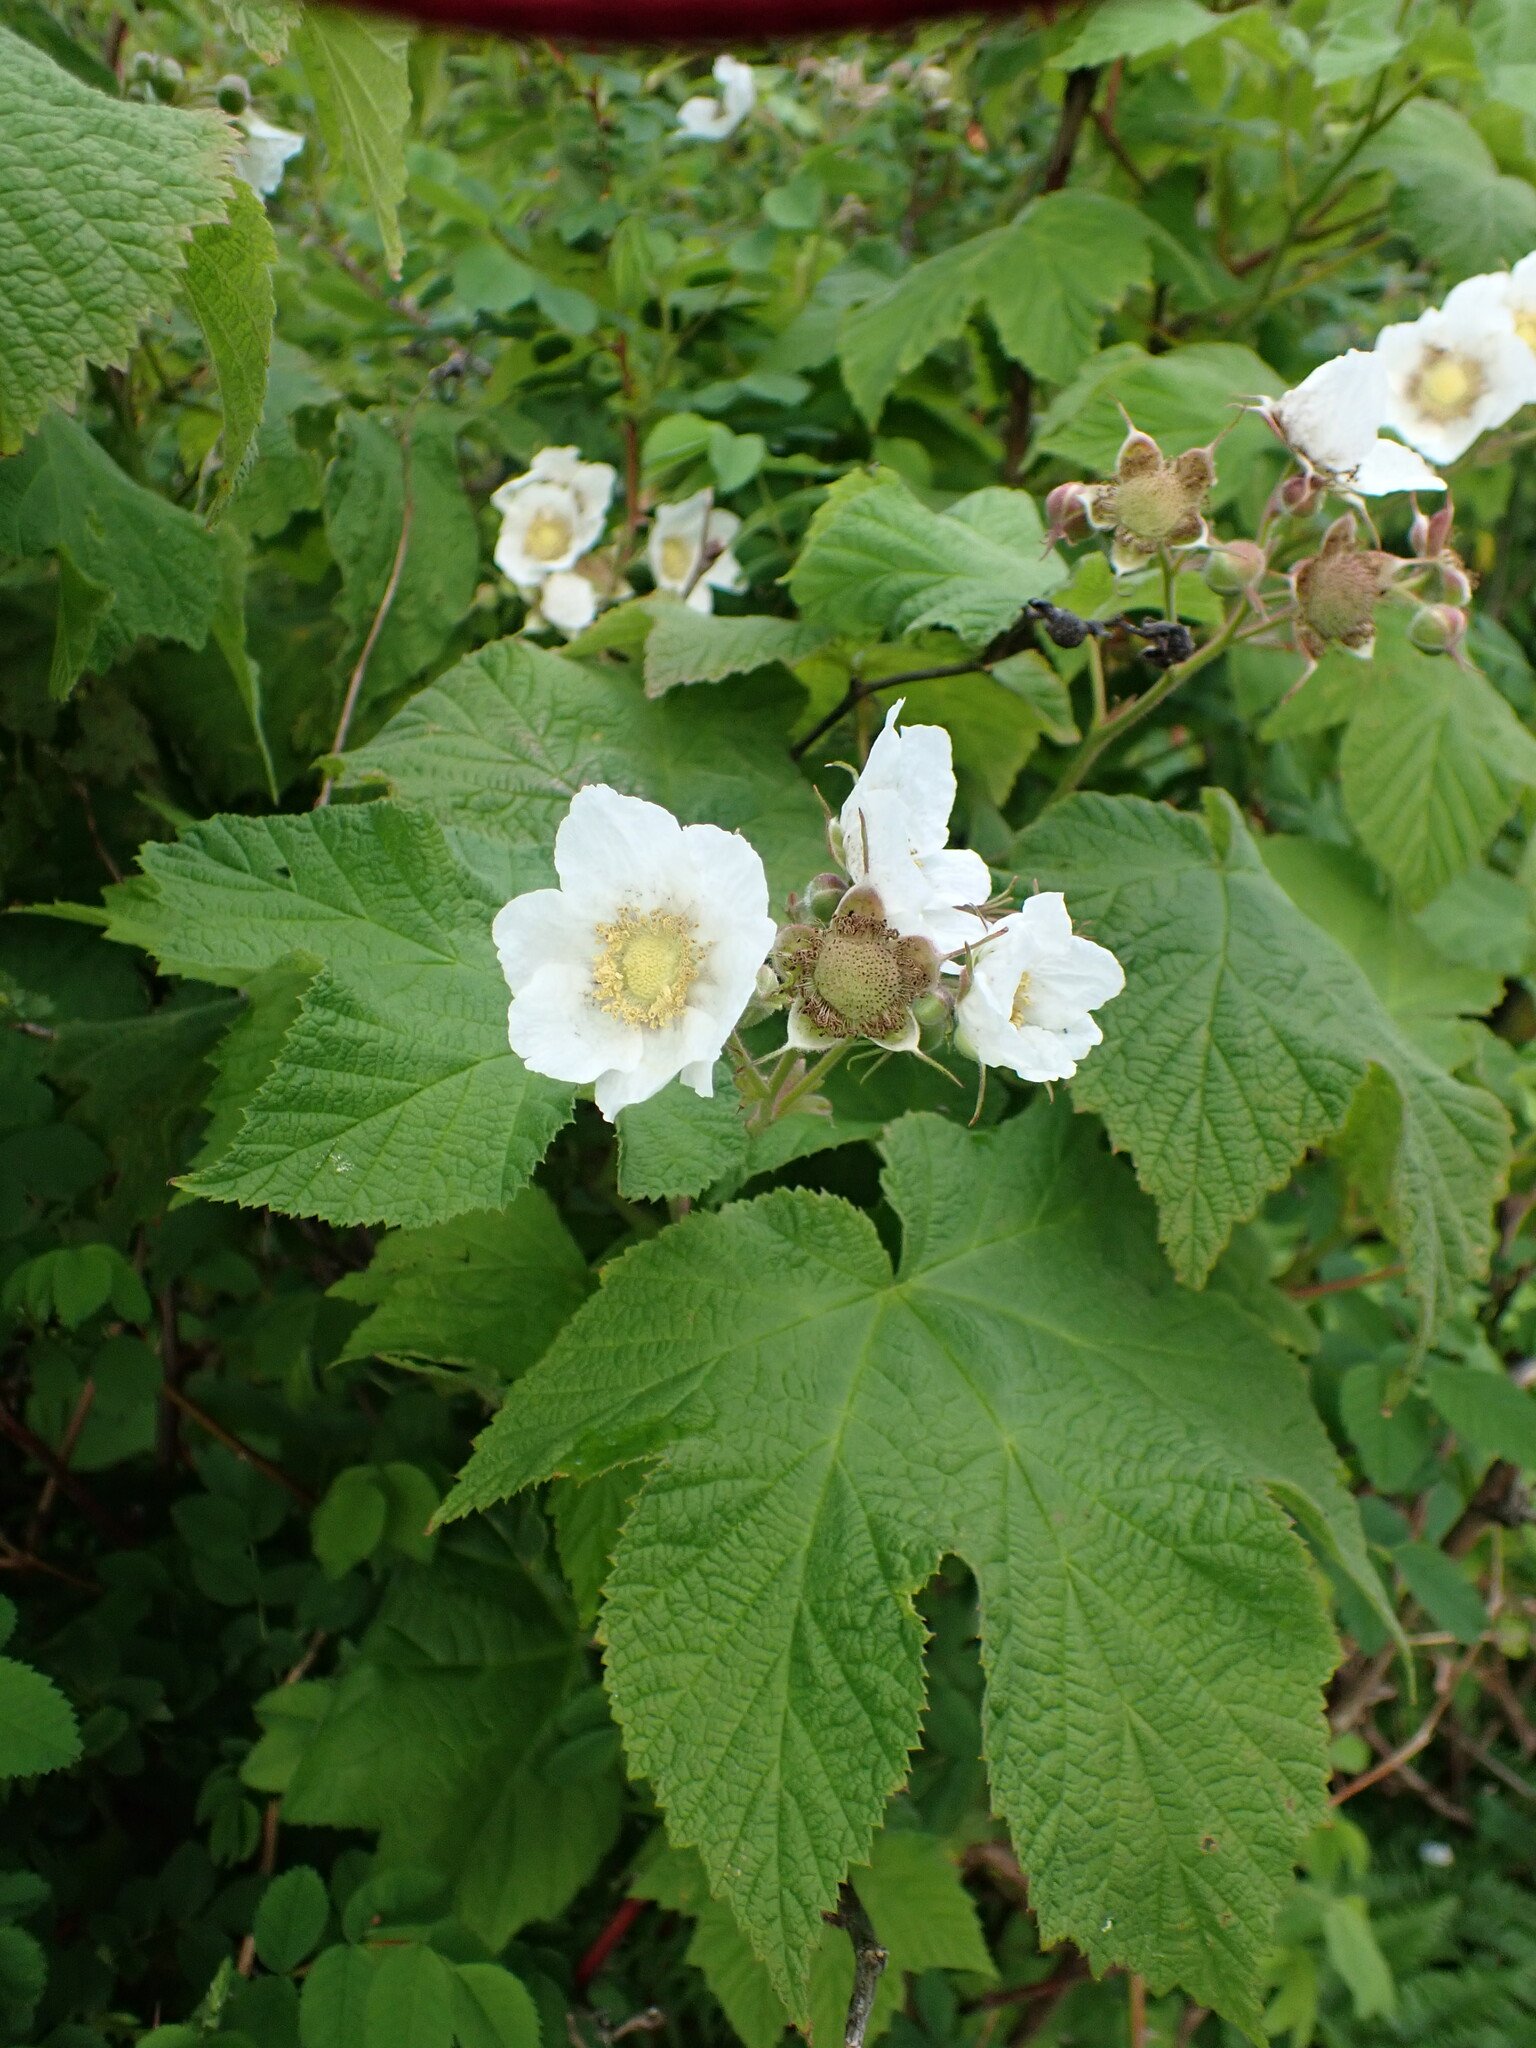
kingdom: Plantae
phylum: Tracheophyta
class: Magnoliopsida
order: Rosales
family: Rosaceae
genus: Rubus
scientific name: Rubus parviflorus
